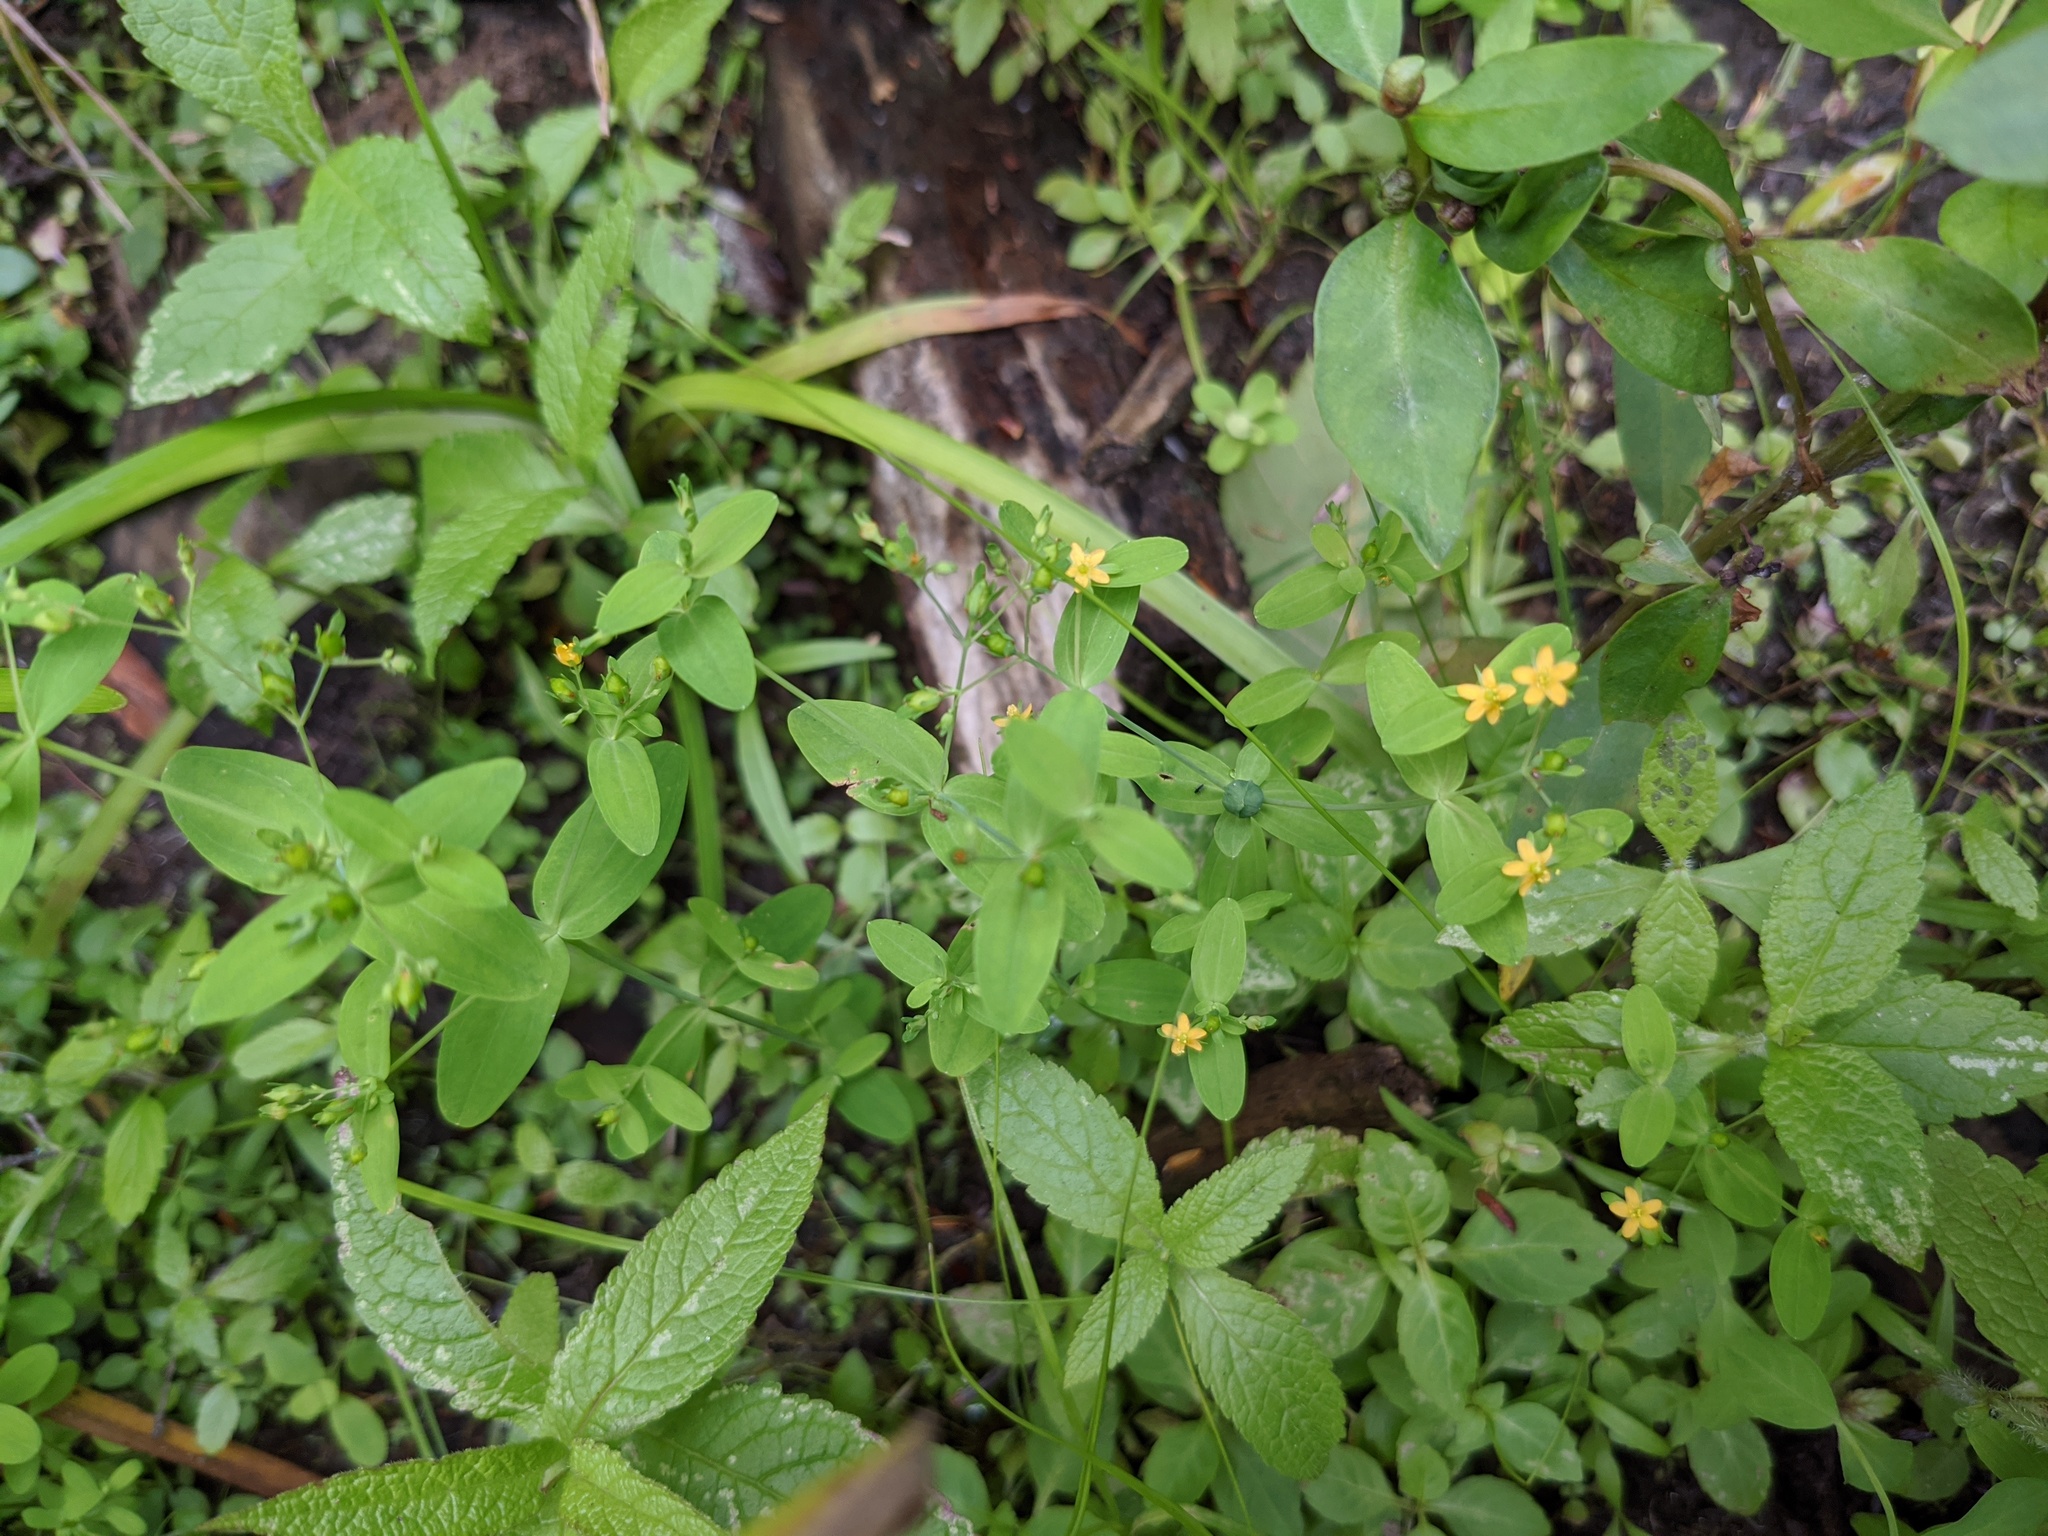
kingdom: Plantae
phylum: Tracheophyta
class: Magnoliopsida
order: Malpighiales
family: Hypericaceae
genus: Hypericum
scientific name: Hypericum mutilum
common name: Dwarf st. john's-wort
